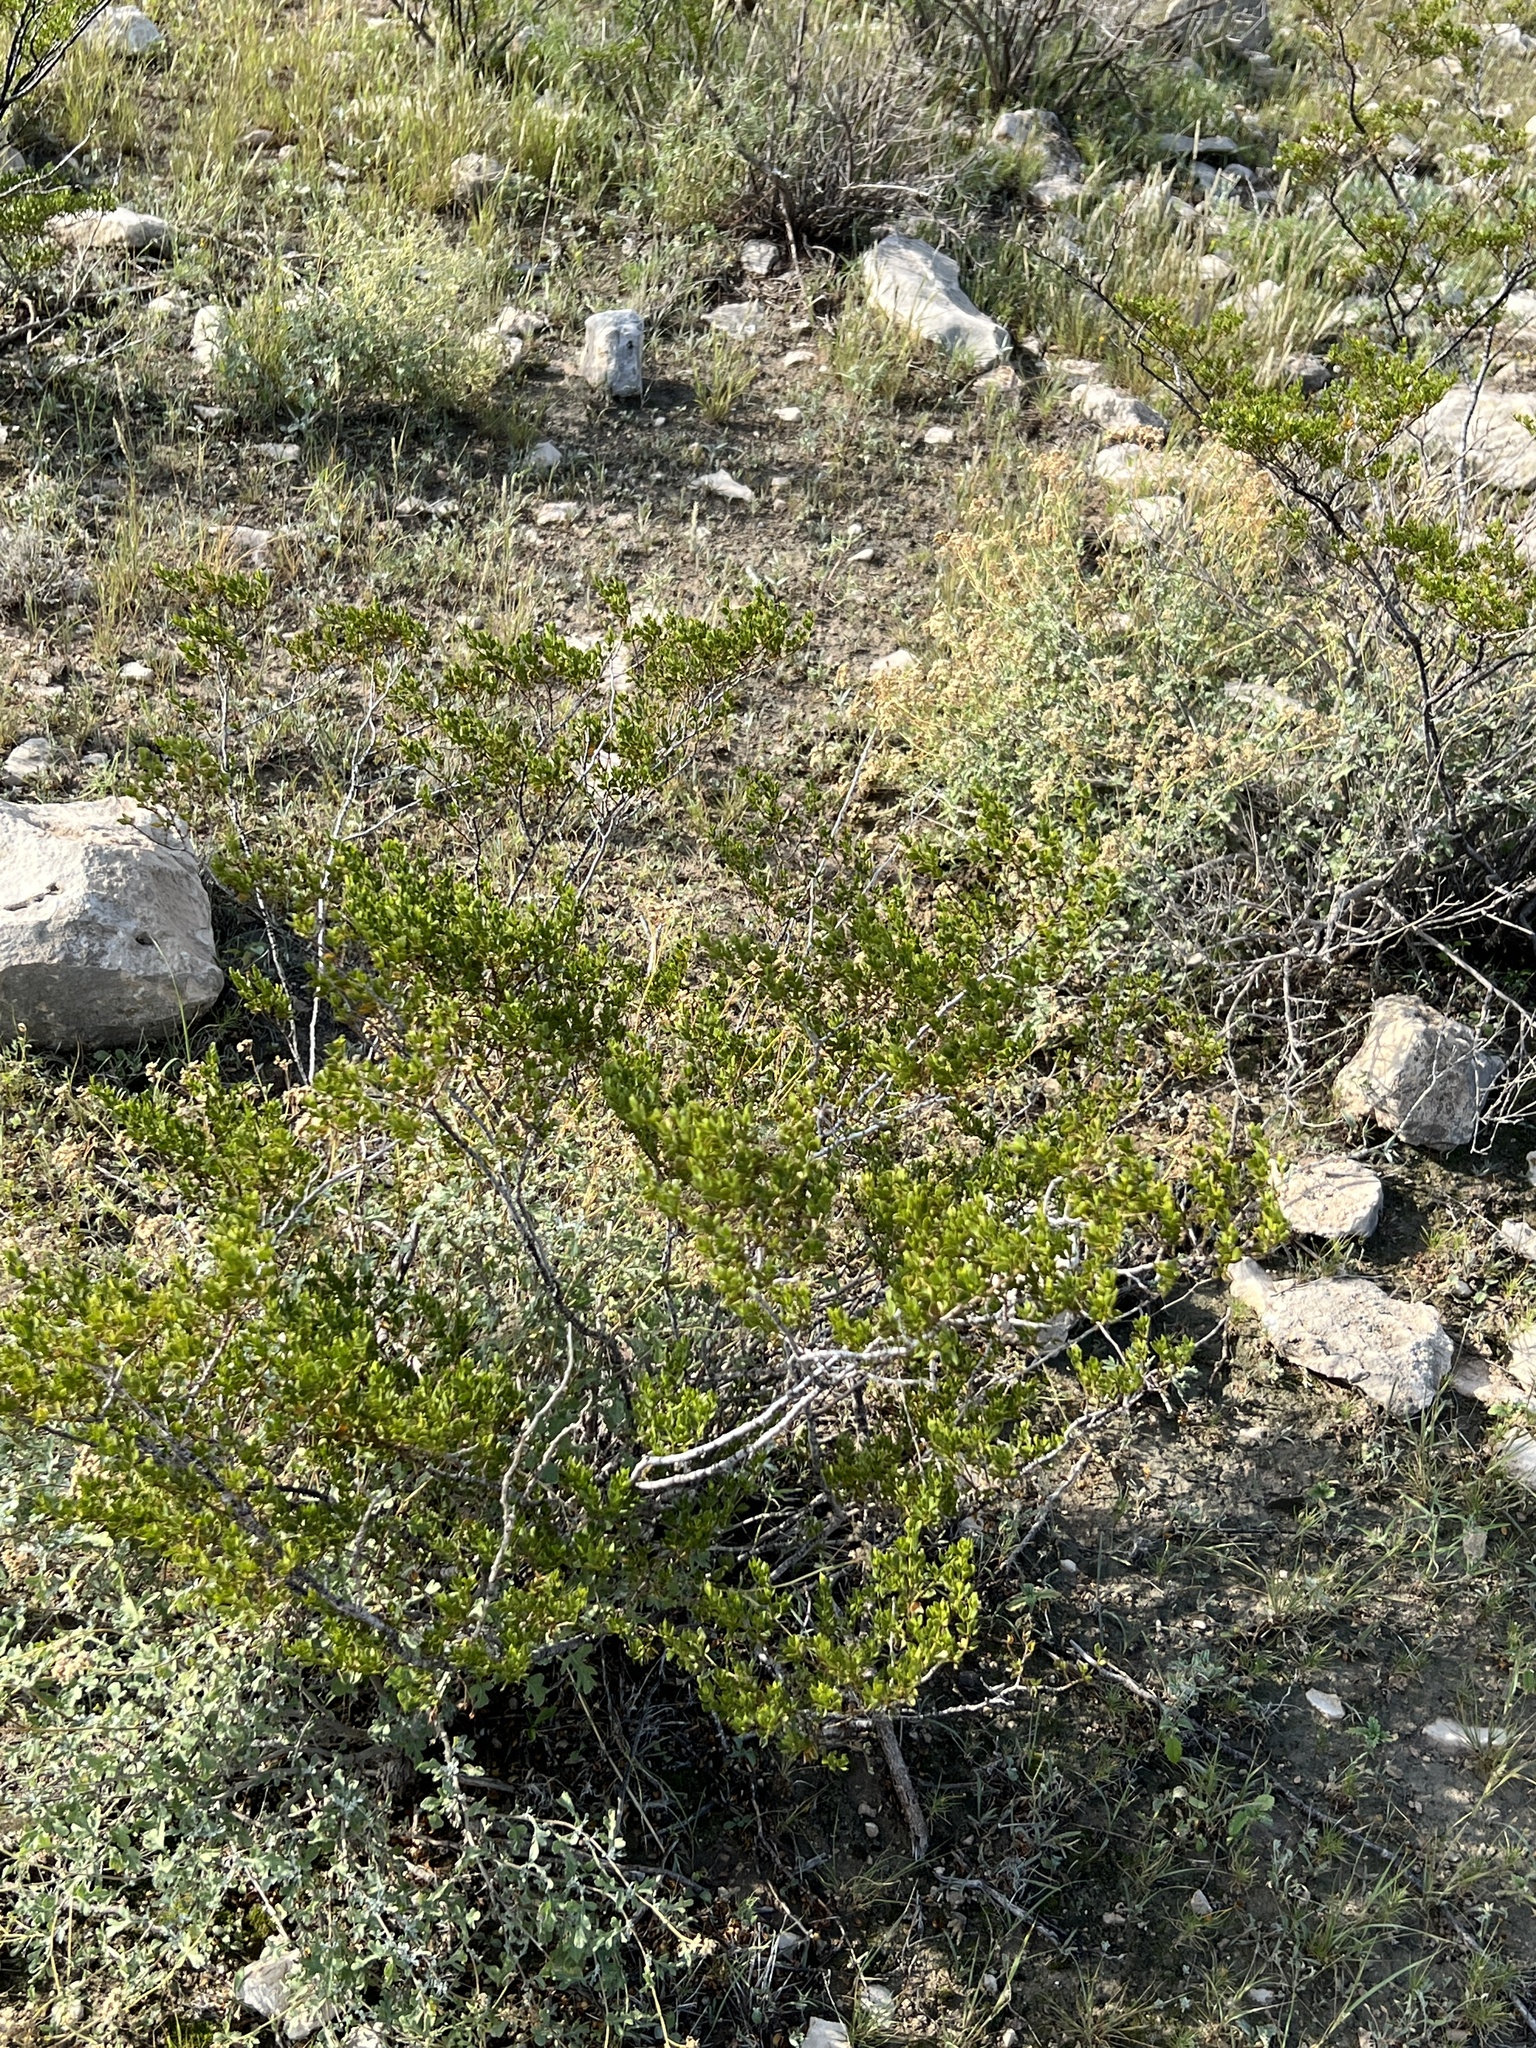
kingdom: Plantae
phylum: Tracheophyta
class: Magnoliopsida
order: Zygophyllales
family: Zygophyllaceae
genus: Larrea
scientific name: Larrea tridentata
